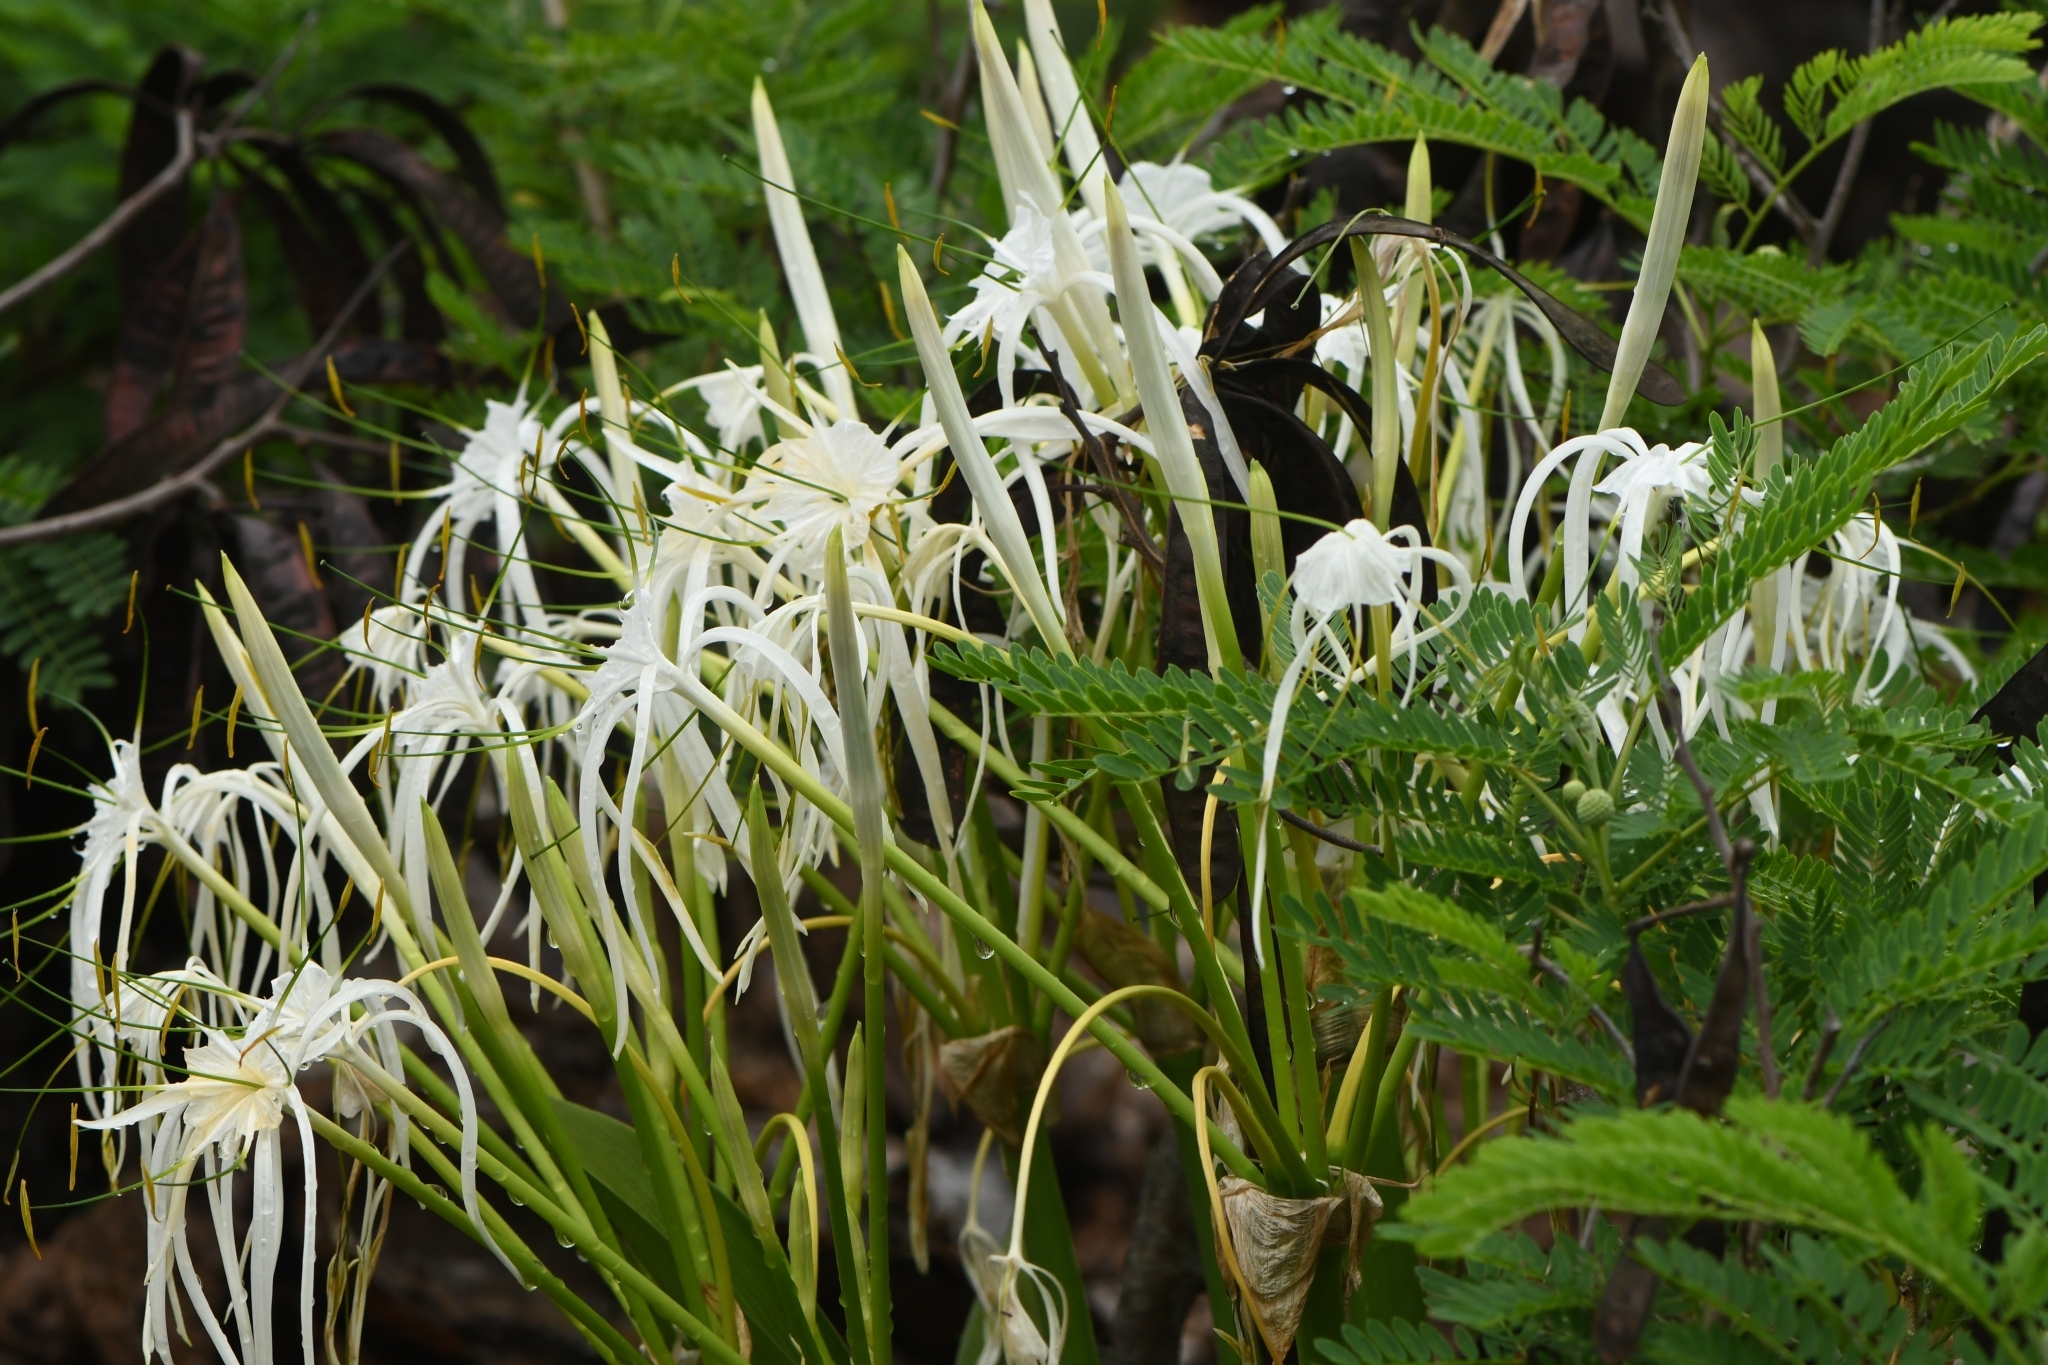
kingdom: Plantae
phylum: Tracheophyta
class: Liliopsida
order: Asparagales
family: Amaryllidaceae
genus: Hymenocallis
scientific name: Hymenocallis littoralis
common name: Beach spiderlily
